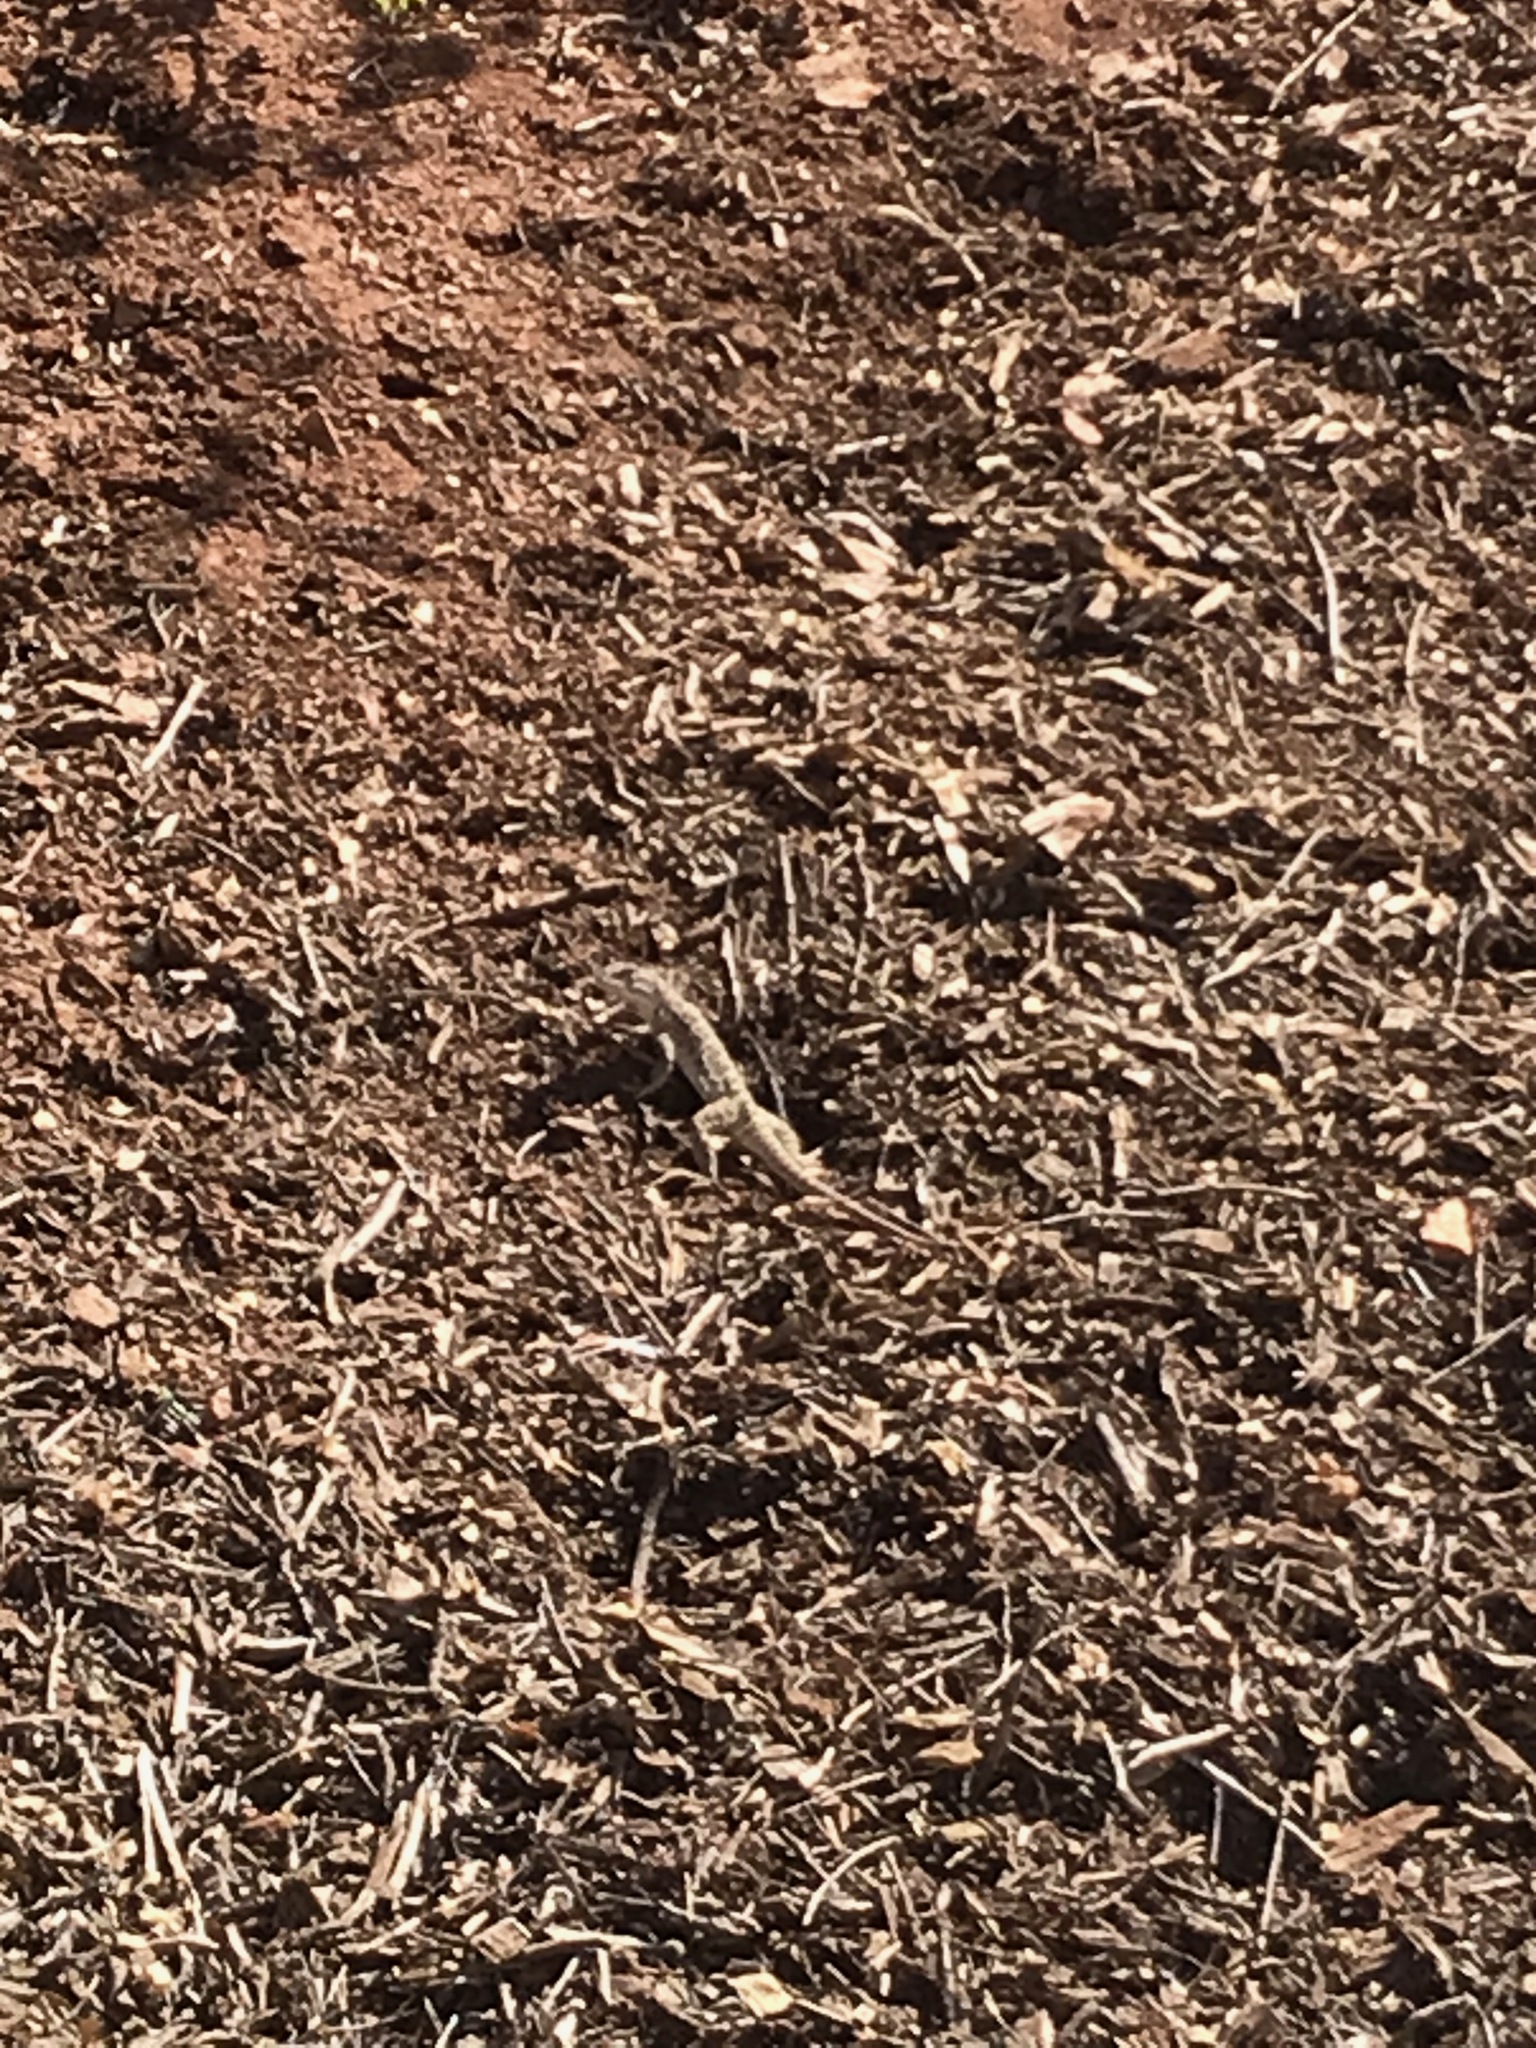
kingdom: Animalia
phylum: Chordata
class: Squamata
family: Crotaphytidae
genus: Gambelia
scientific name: Gambelia wislizenii
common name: Longnose leopard lizard
